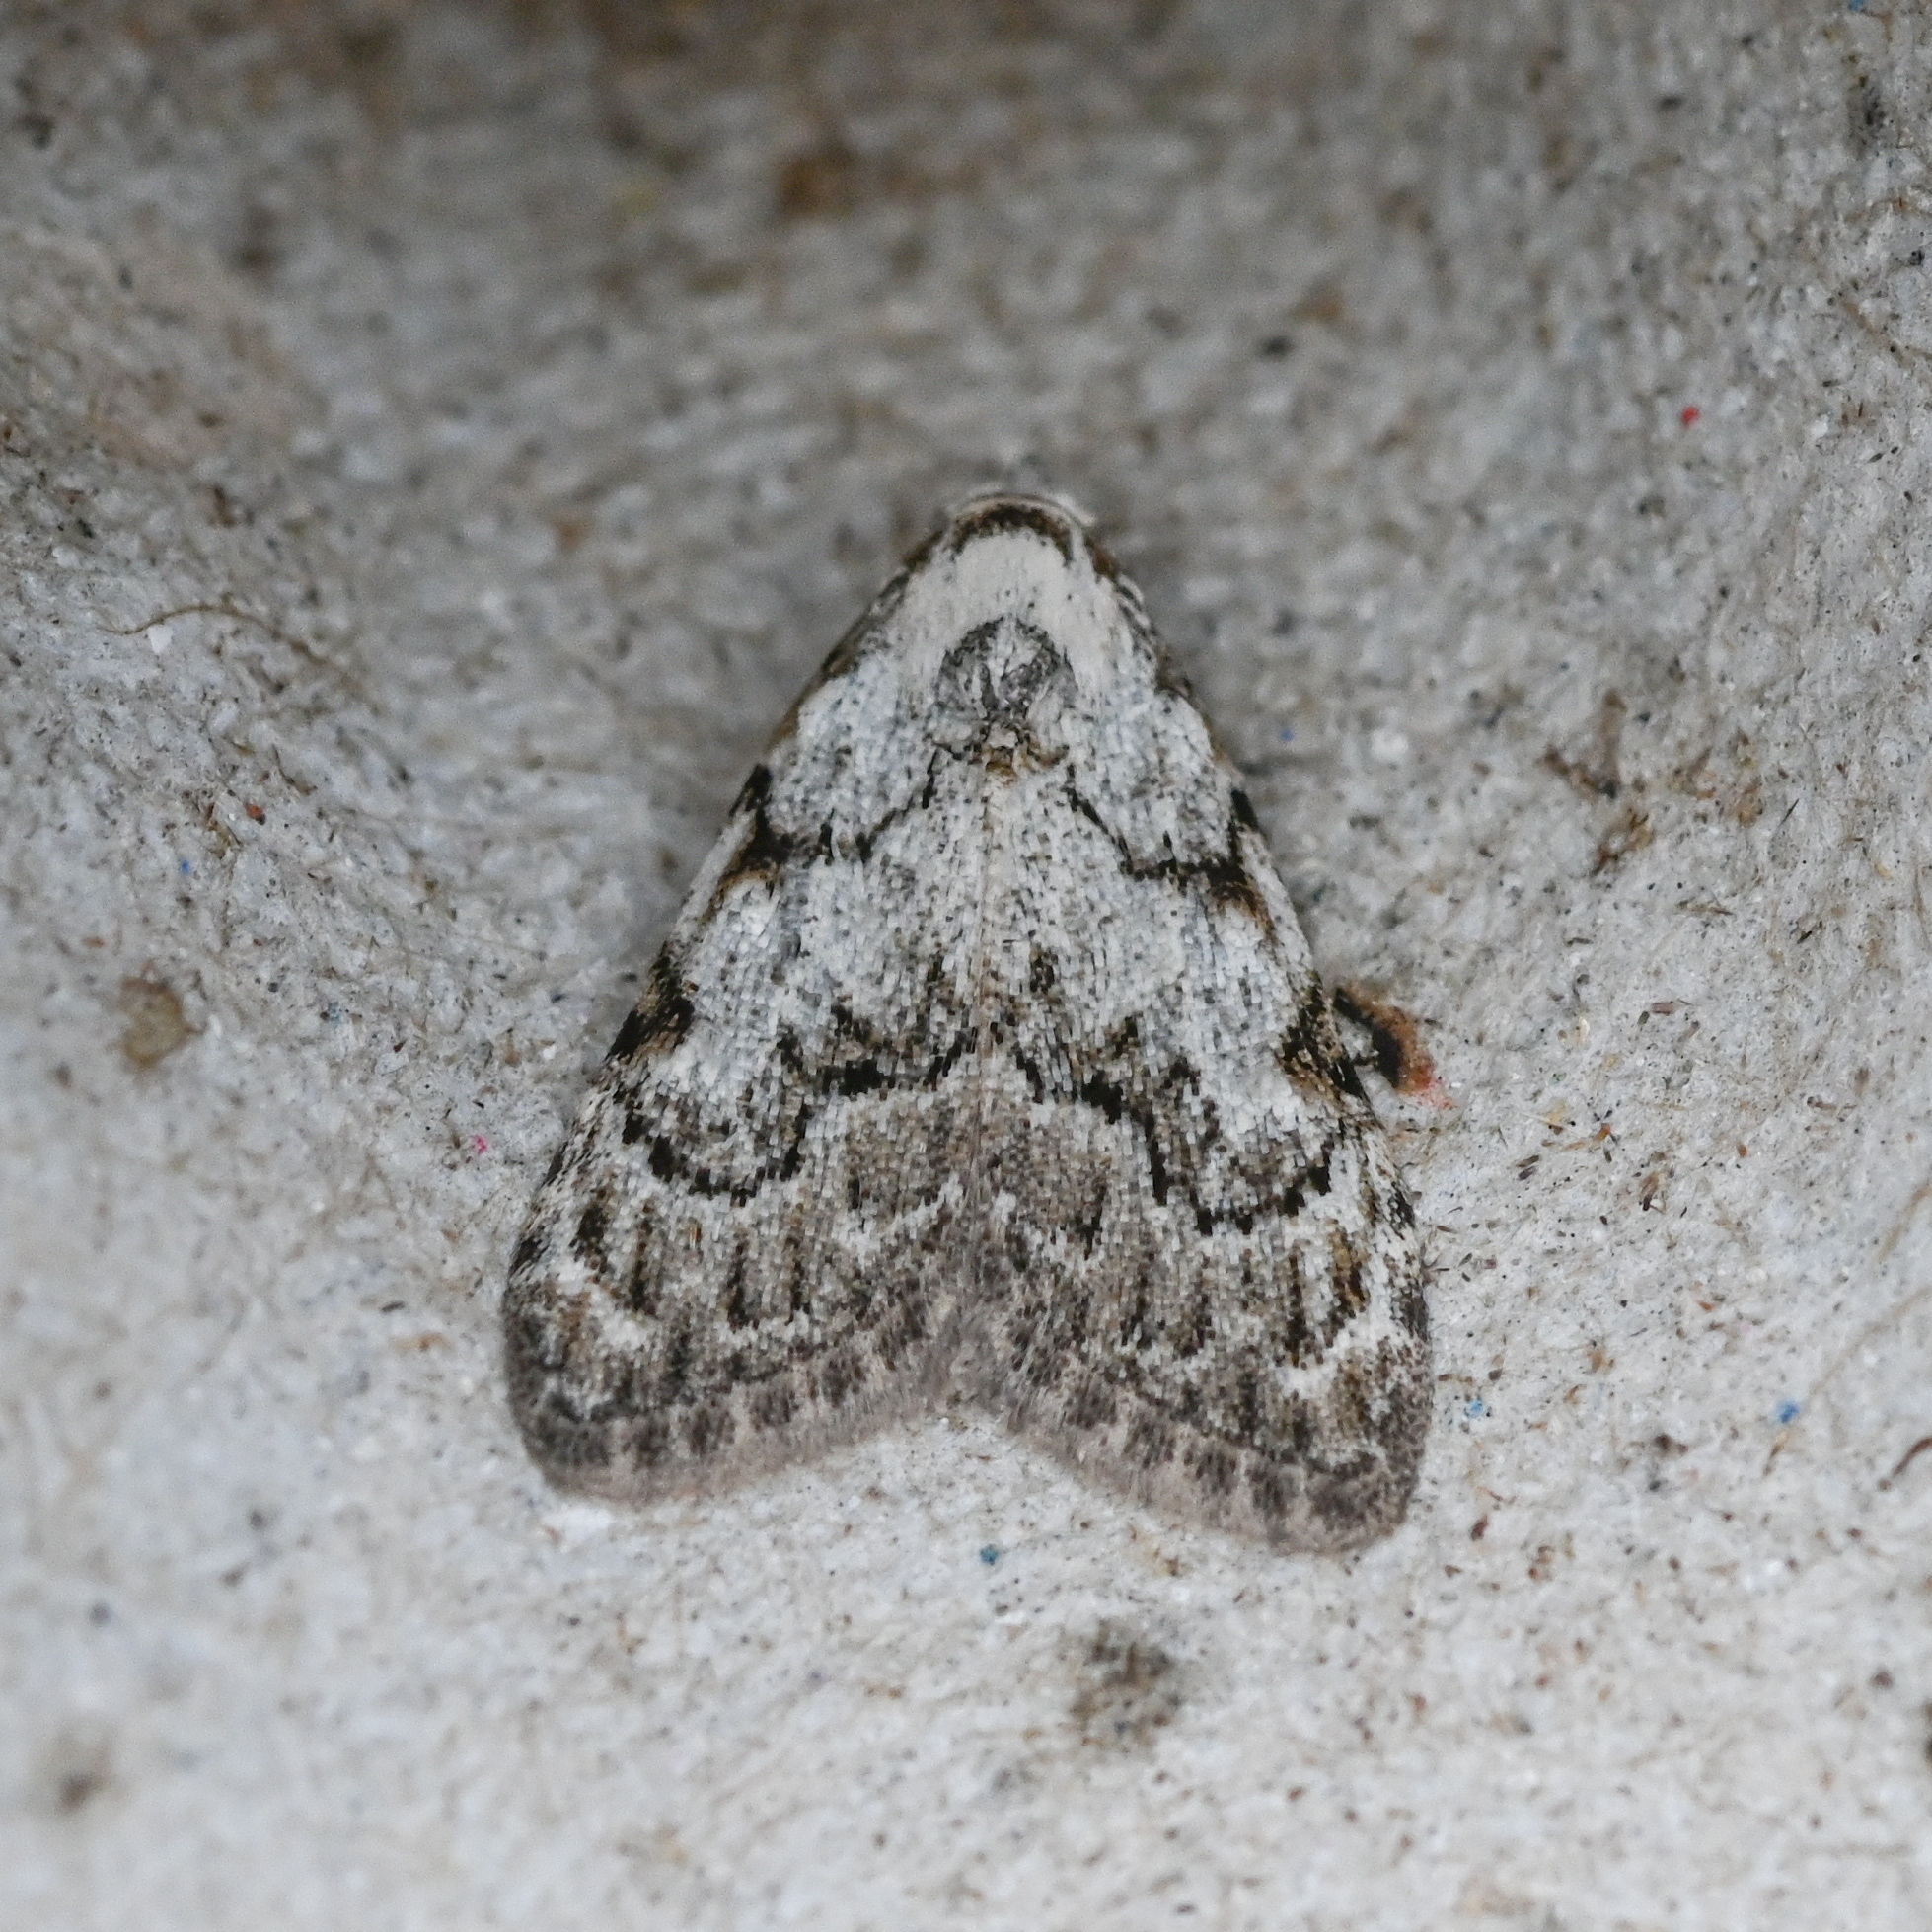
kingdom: Animalia
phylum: Arthropoda
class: Insecta
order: Lepidoptera
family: Nolidae
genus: Nola
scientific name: Nola confusalis
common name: Least black arches
